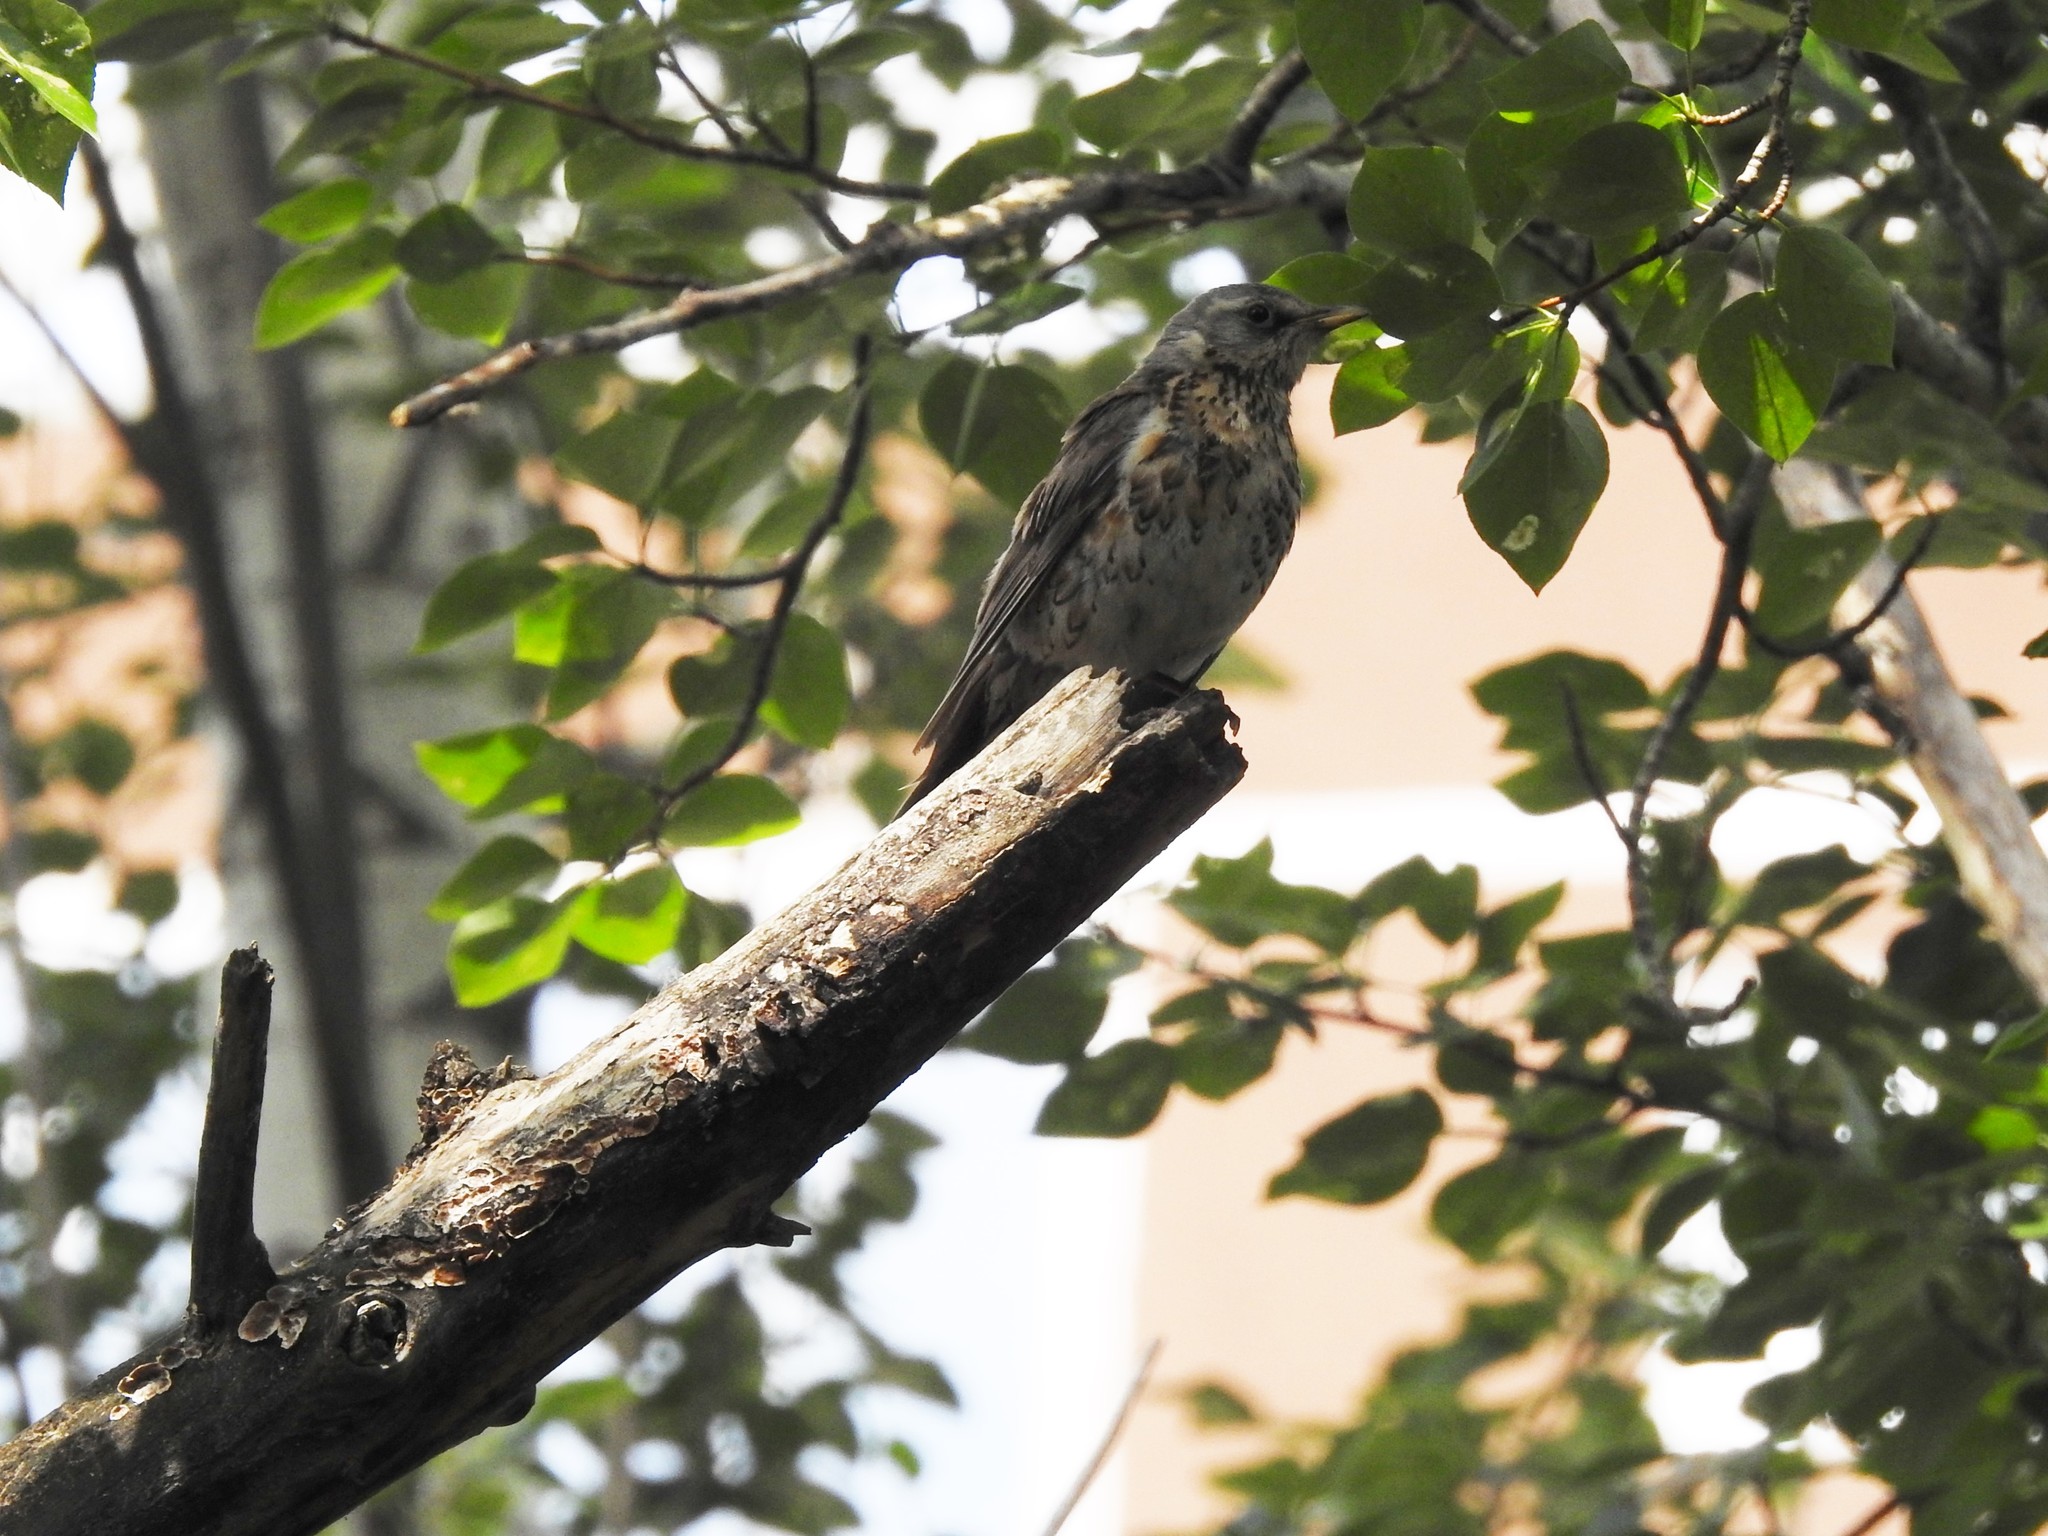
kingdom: Animalia
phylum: Chordata
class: Aves
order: Passeriformes
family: Turdidae
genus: Turdus
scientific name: Turdus pilaris
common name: Fieldfare
